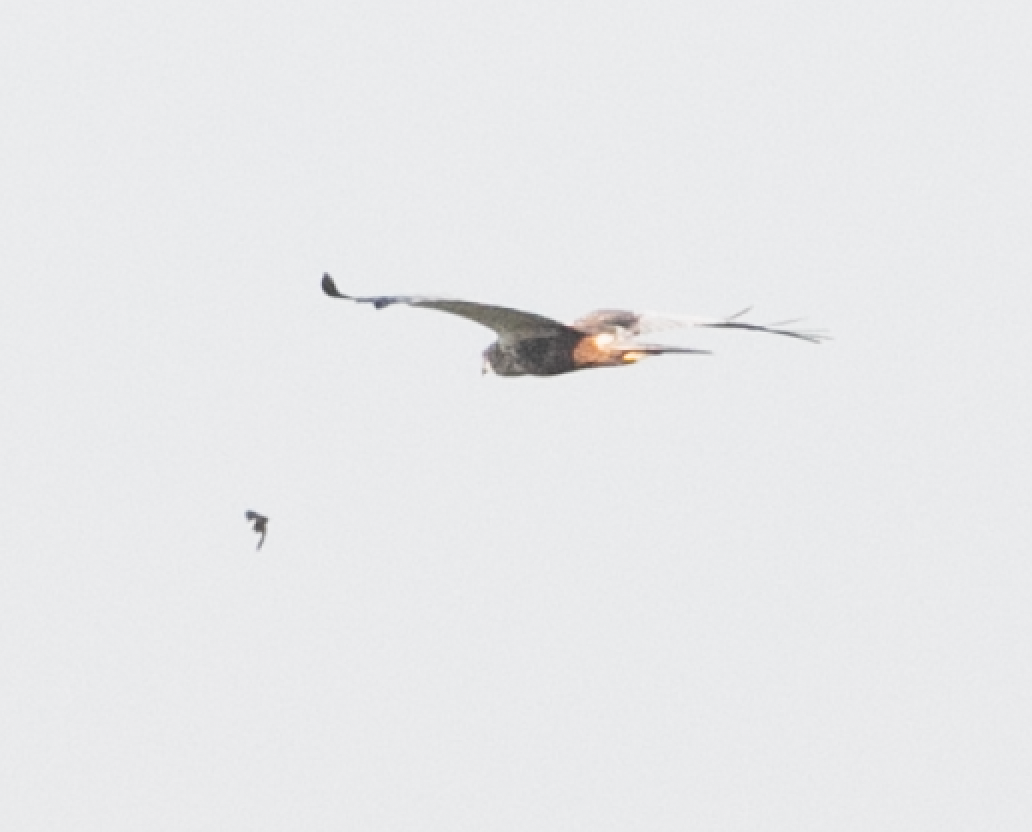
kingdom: Animalia
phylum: Chordata
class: Aves
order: Accipitriformes
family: Accipitridae
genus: Circus
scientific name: Circus aeruginosus
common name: Western marsh harrier
